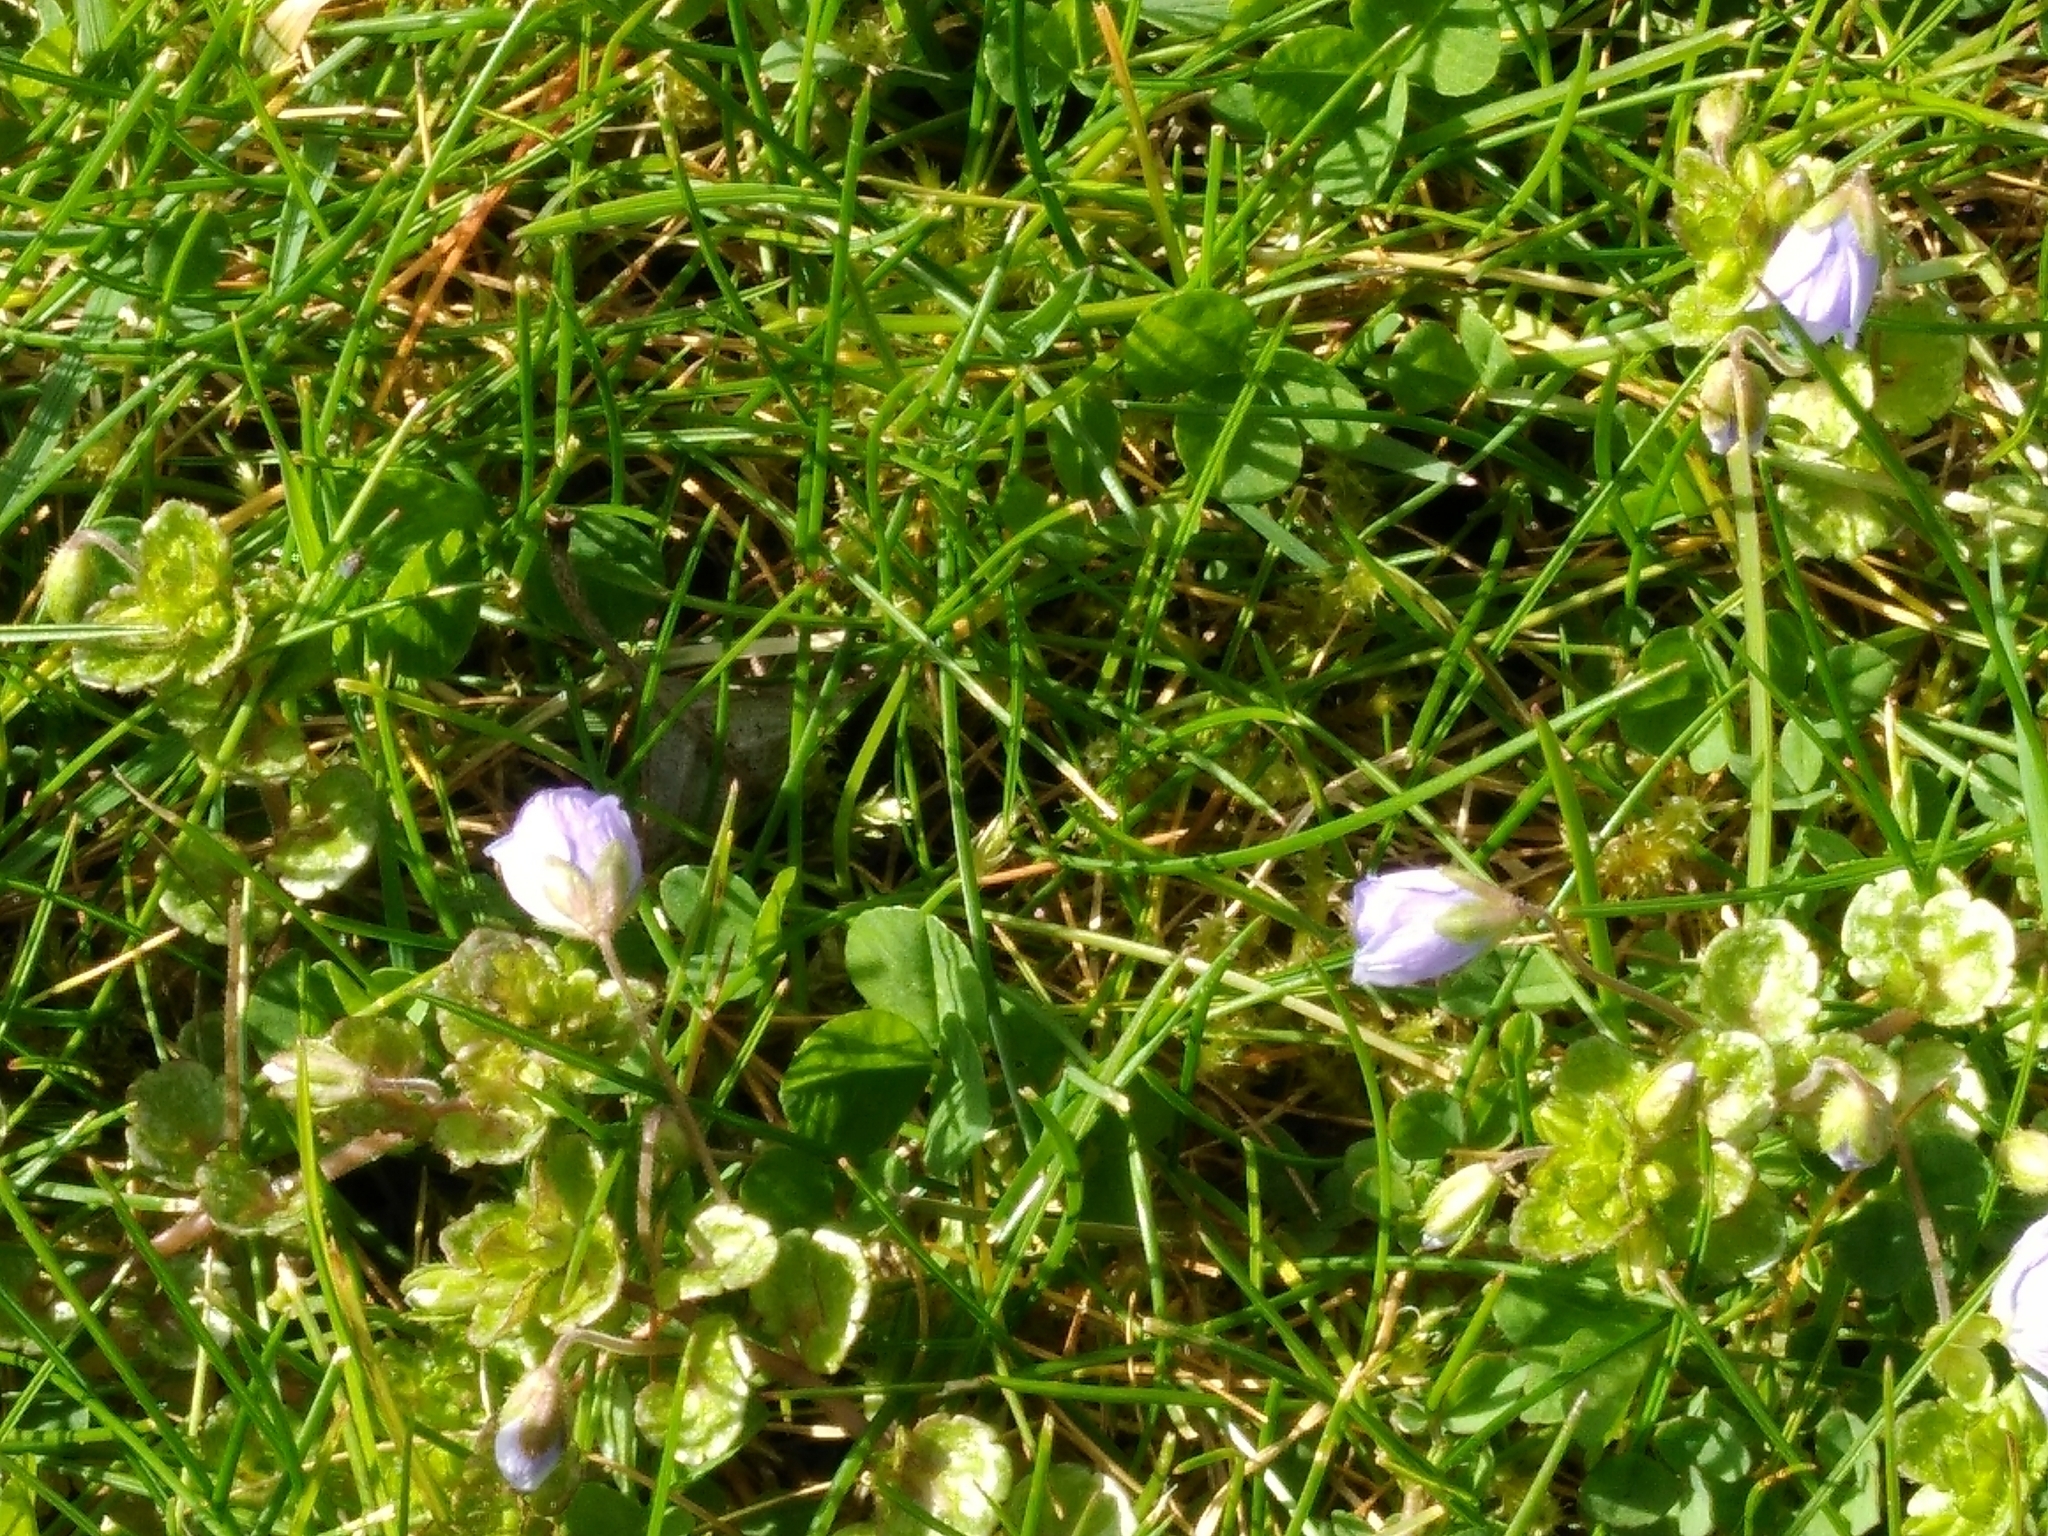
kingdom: Plantae
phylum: Tracheophyta
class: Magnoliopsida
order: Lamiales
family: Plantaginaceae
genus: Veronica
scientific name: Veronica filiformis
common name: Slender speedwell
